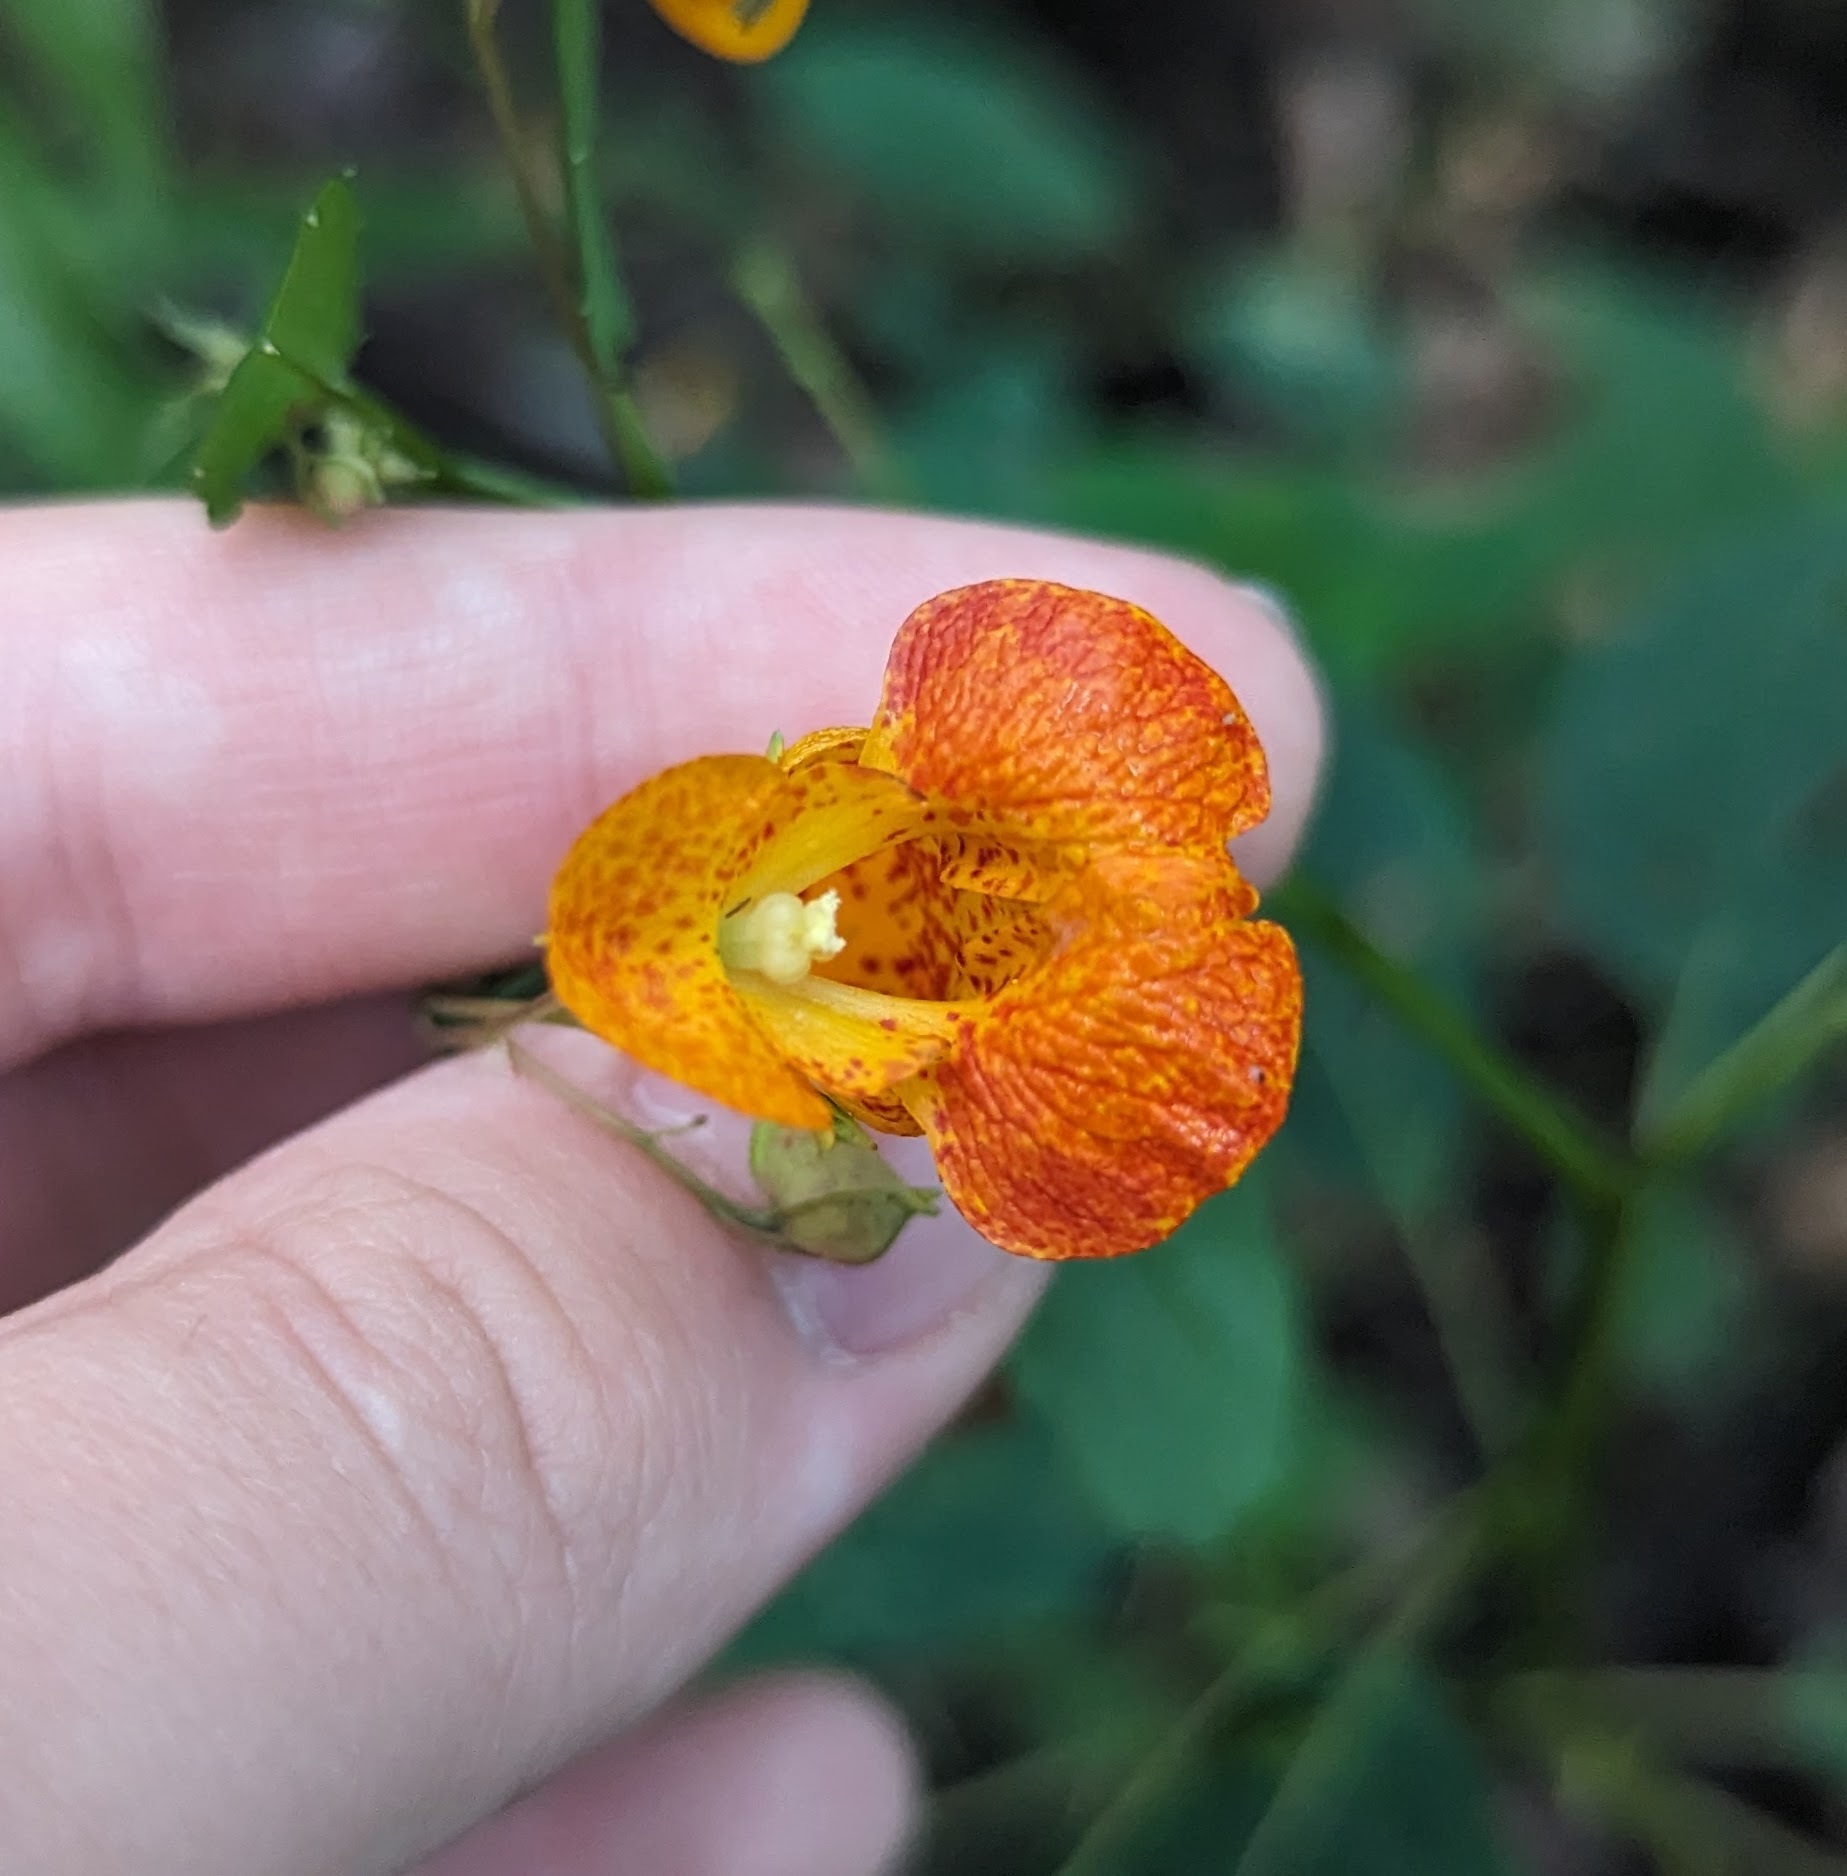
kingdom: Plantae
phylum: Tracheophyta
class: Magnoliopsida
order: Ericales
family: Balsaminaceae
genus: Impatiens
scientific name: Impatiens capensis
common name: Orange balsam
